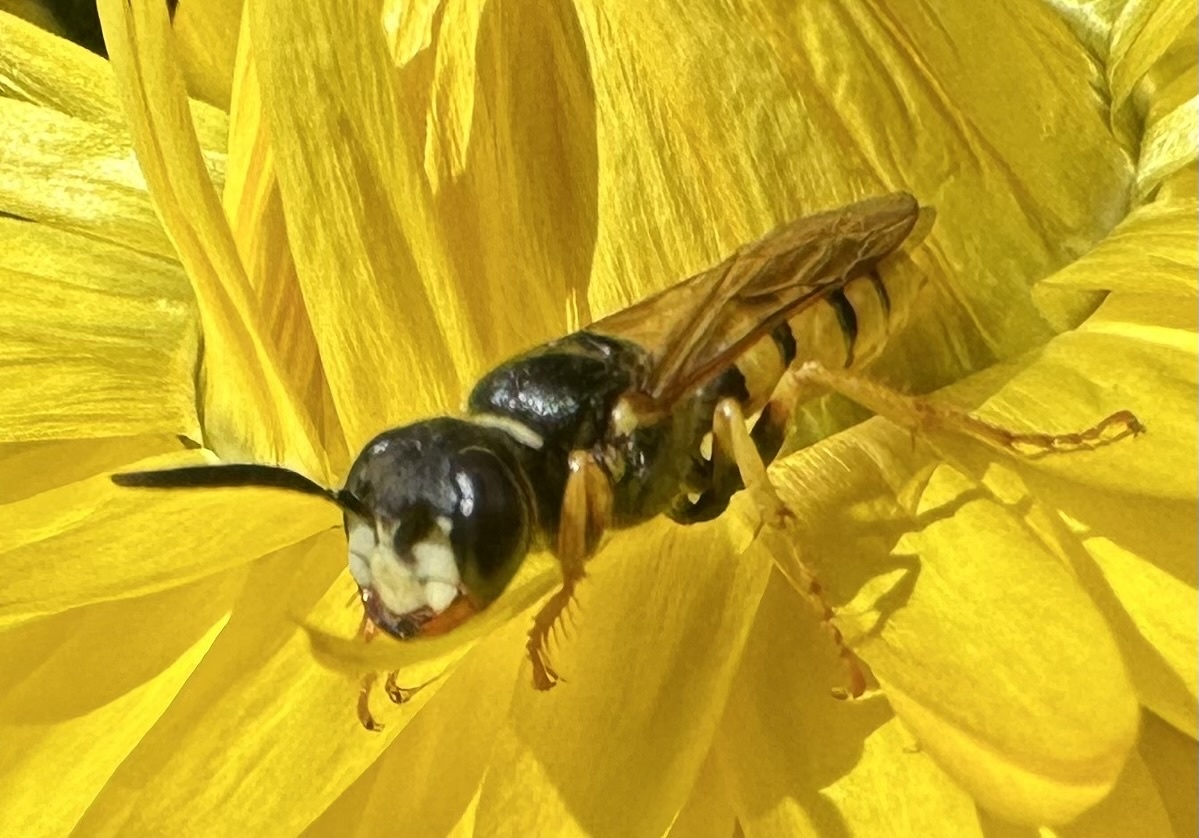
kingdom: Animalia
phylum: Arthropoda
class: Insecta
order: Hymenoptera
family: Crabronidae
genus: Philanthus
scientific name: Philanthus triangulum
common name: Bee wolf
